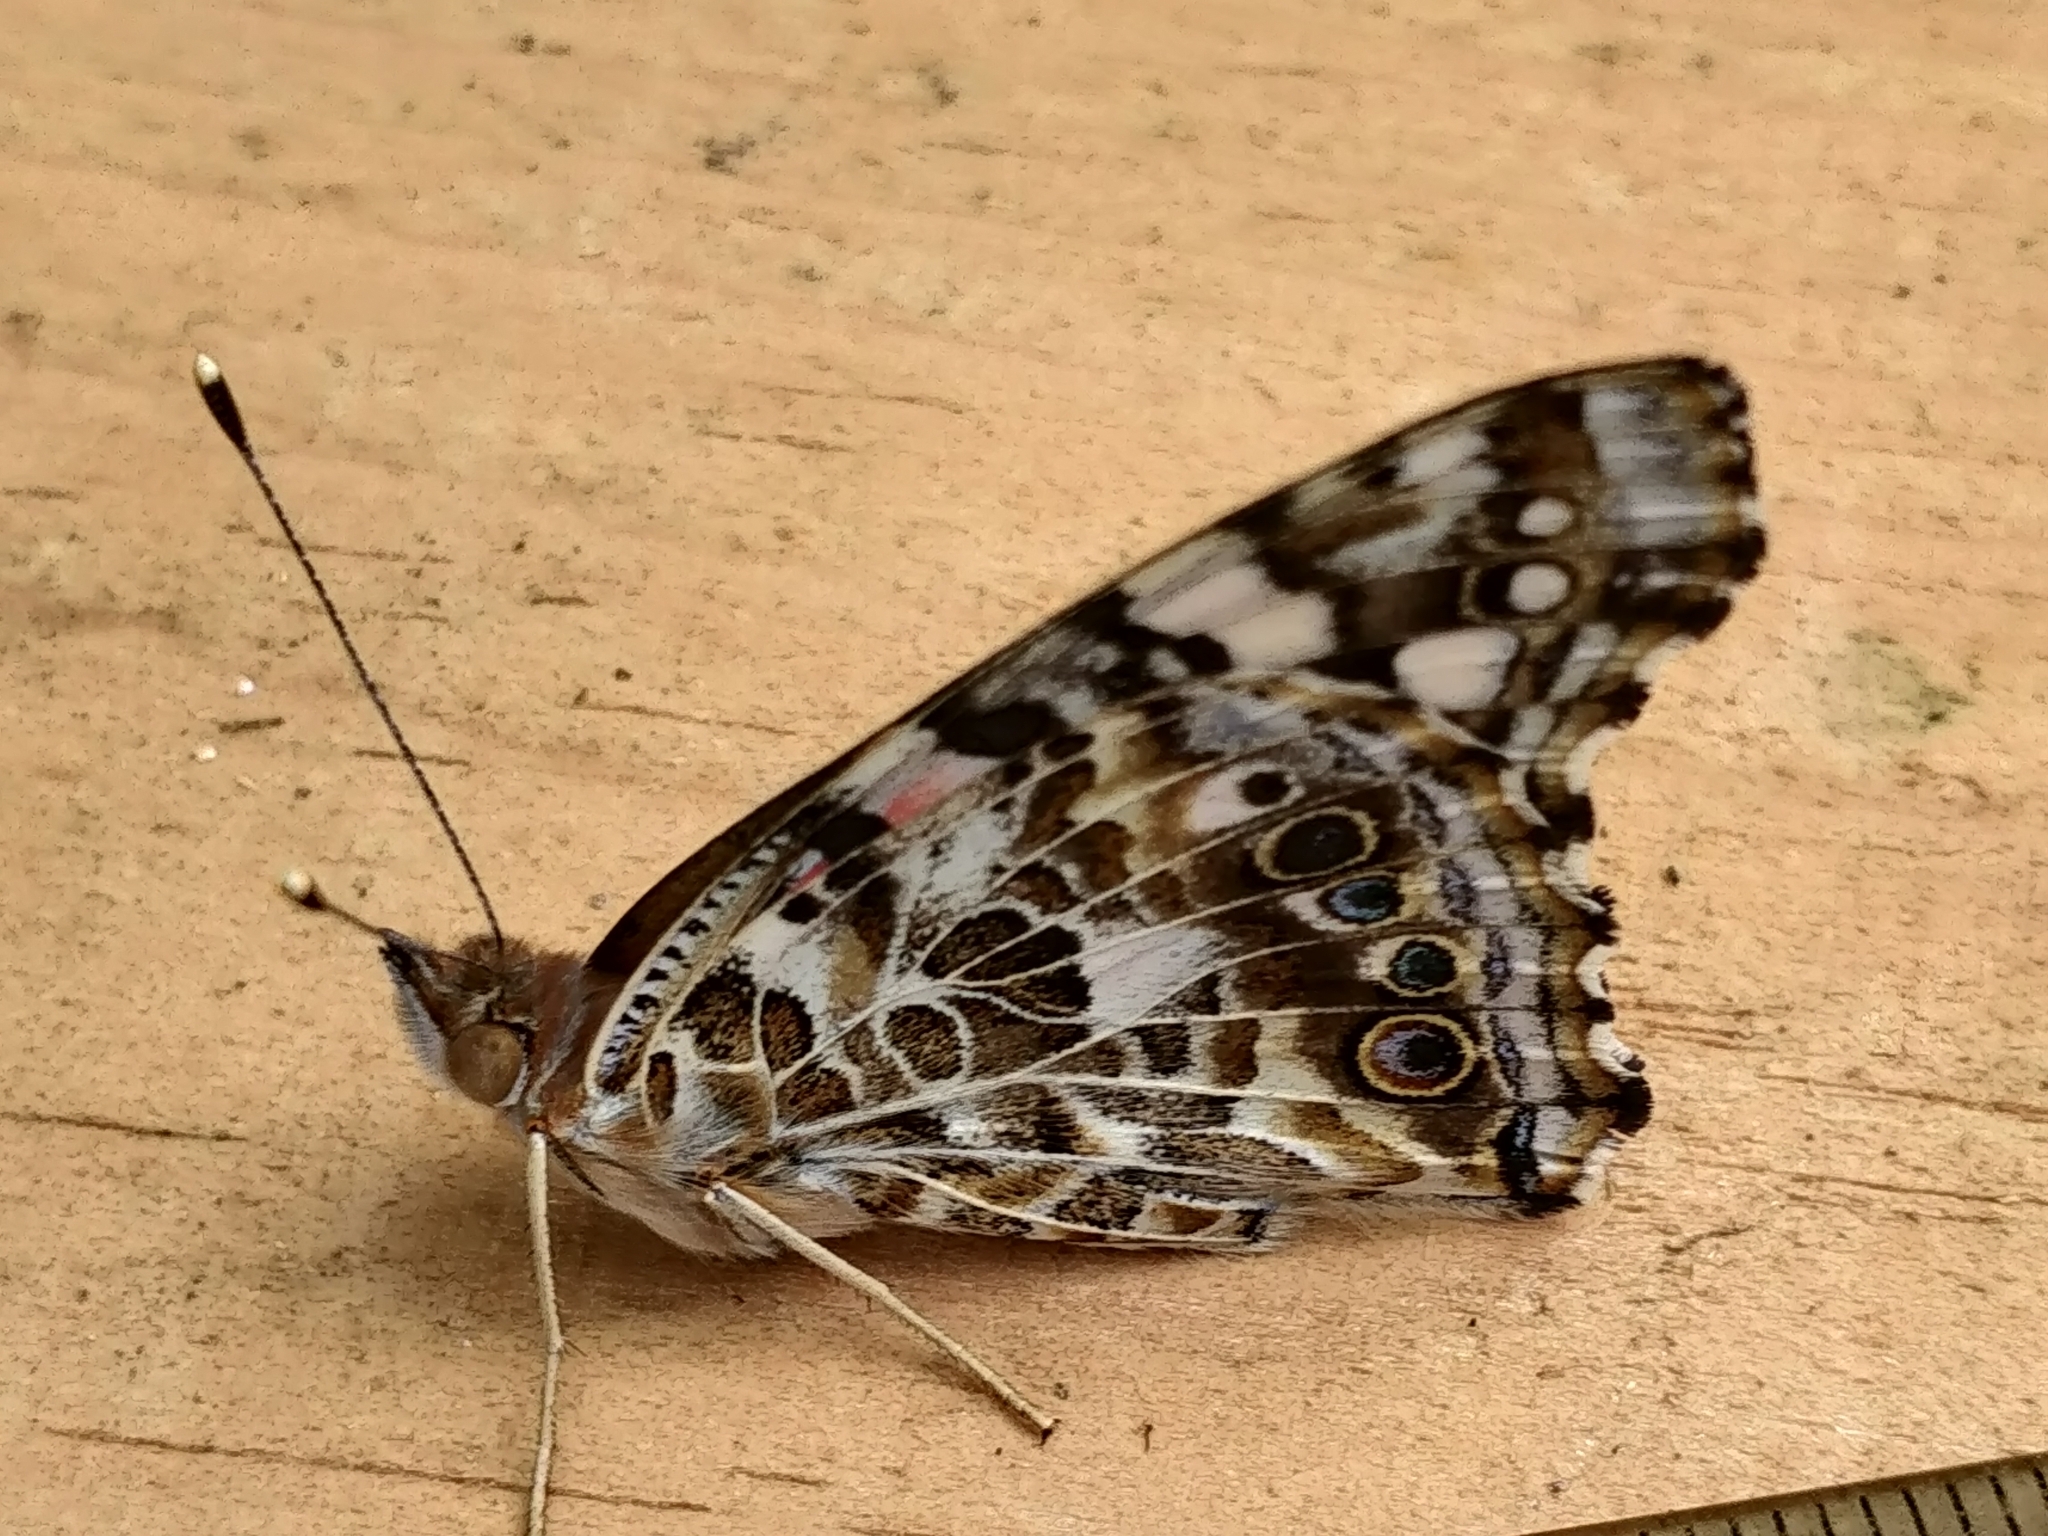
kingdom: Animalia
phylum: Arthropoda
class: Insecta
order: Lepidoptera
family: Nymphalidae
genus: Vanessa
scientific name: Vanessa cardui
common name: Painted lady
